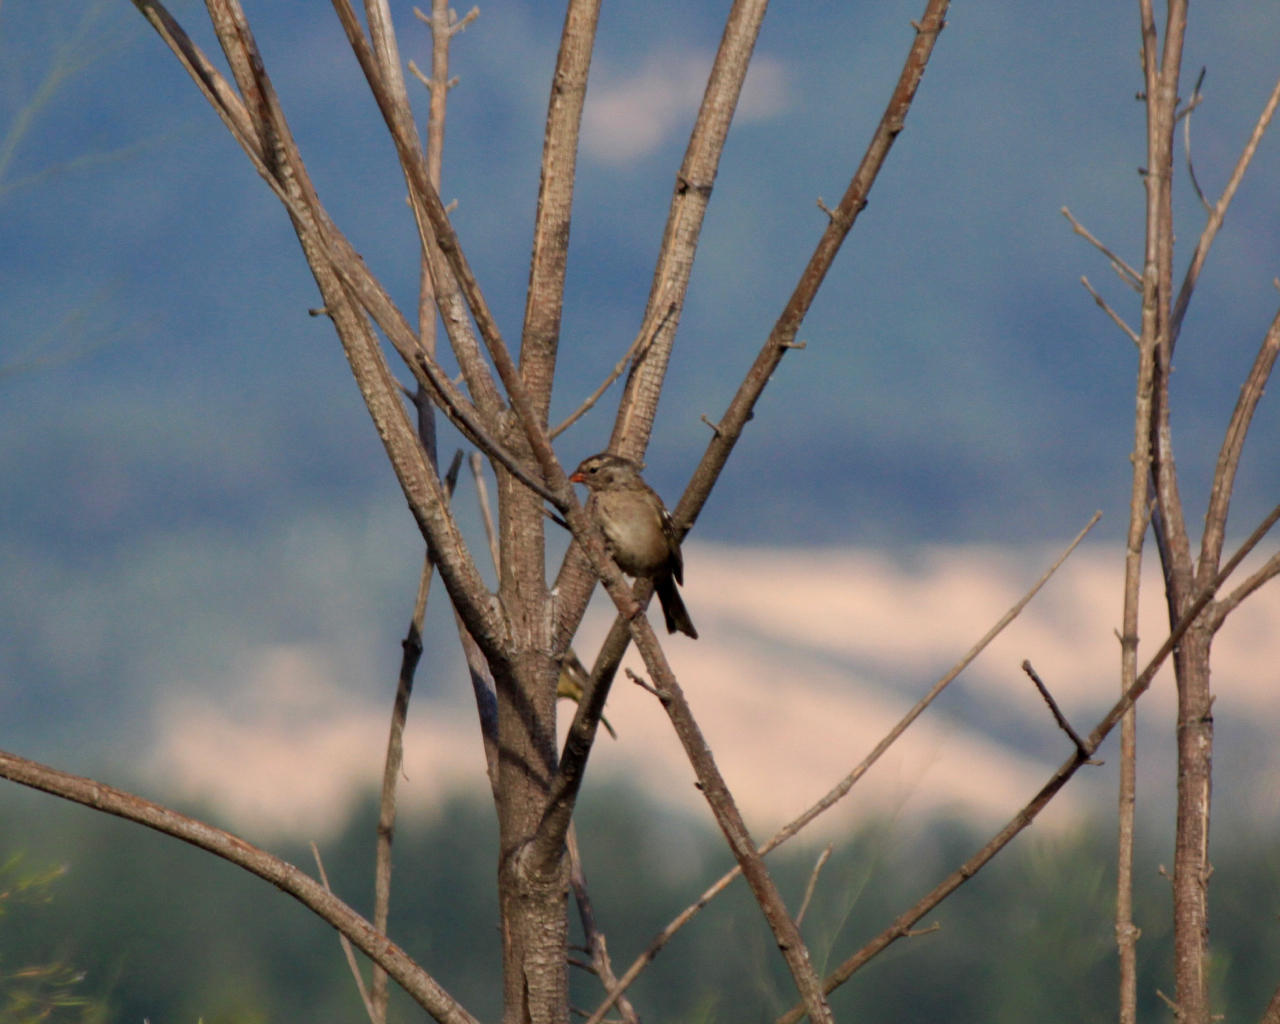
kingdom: Animalia
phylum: Chordata
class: Aves
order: Passeriformes
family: Passerellidae
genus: Zonotrichia
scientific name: Zonotrichia leucophrys
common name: White-crowned sparrow
